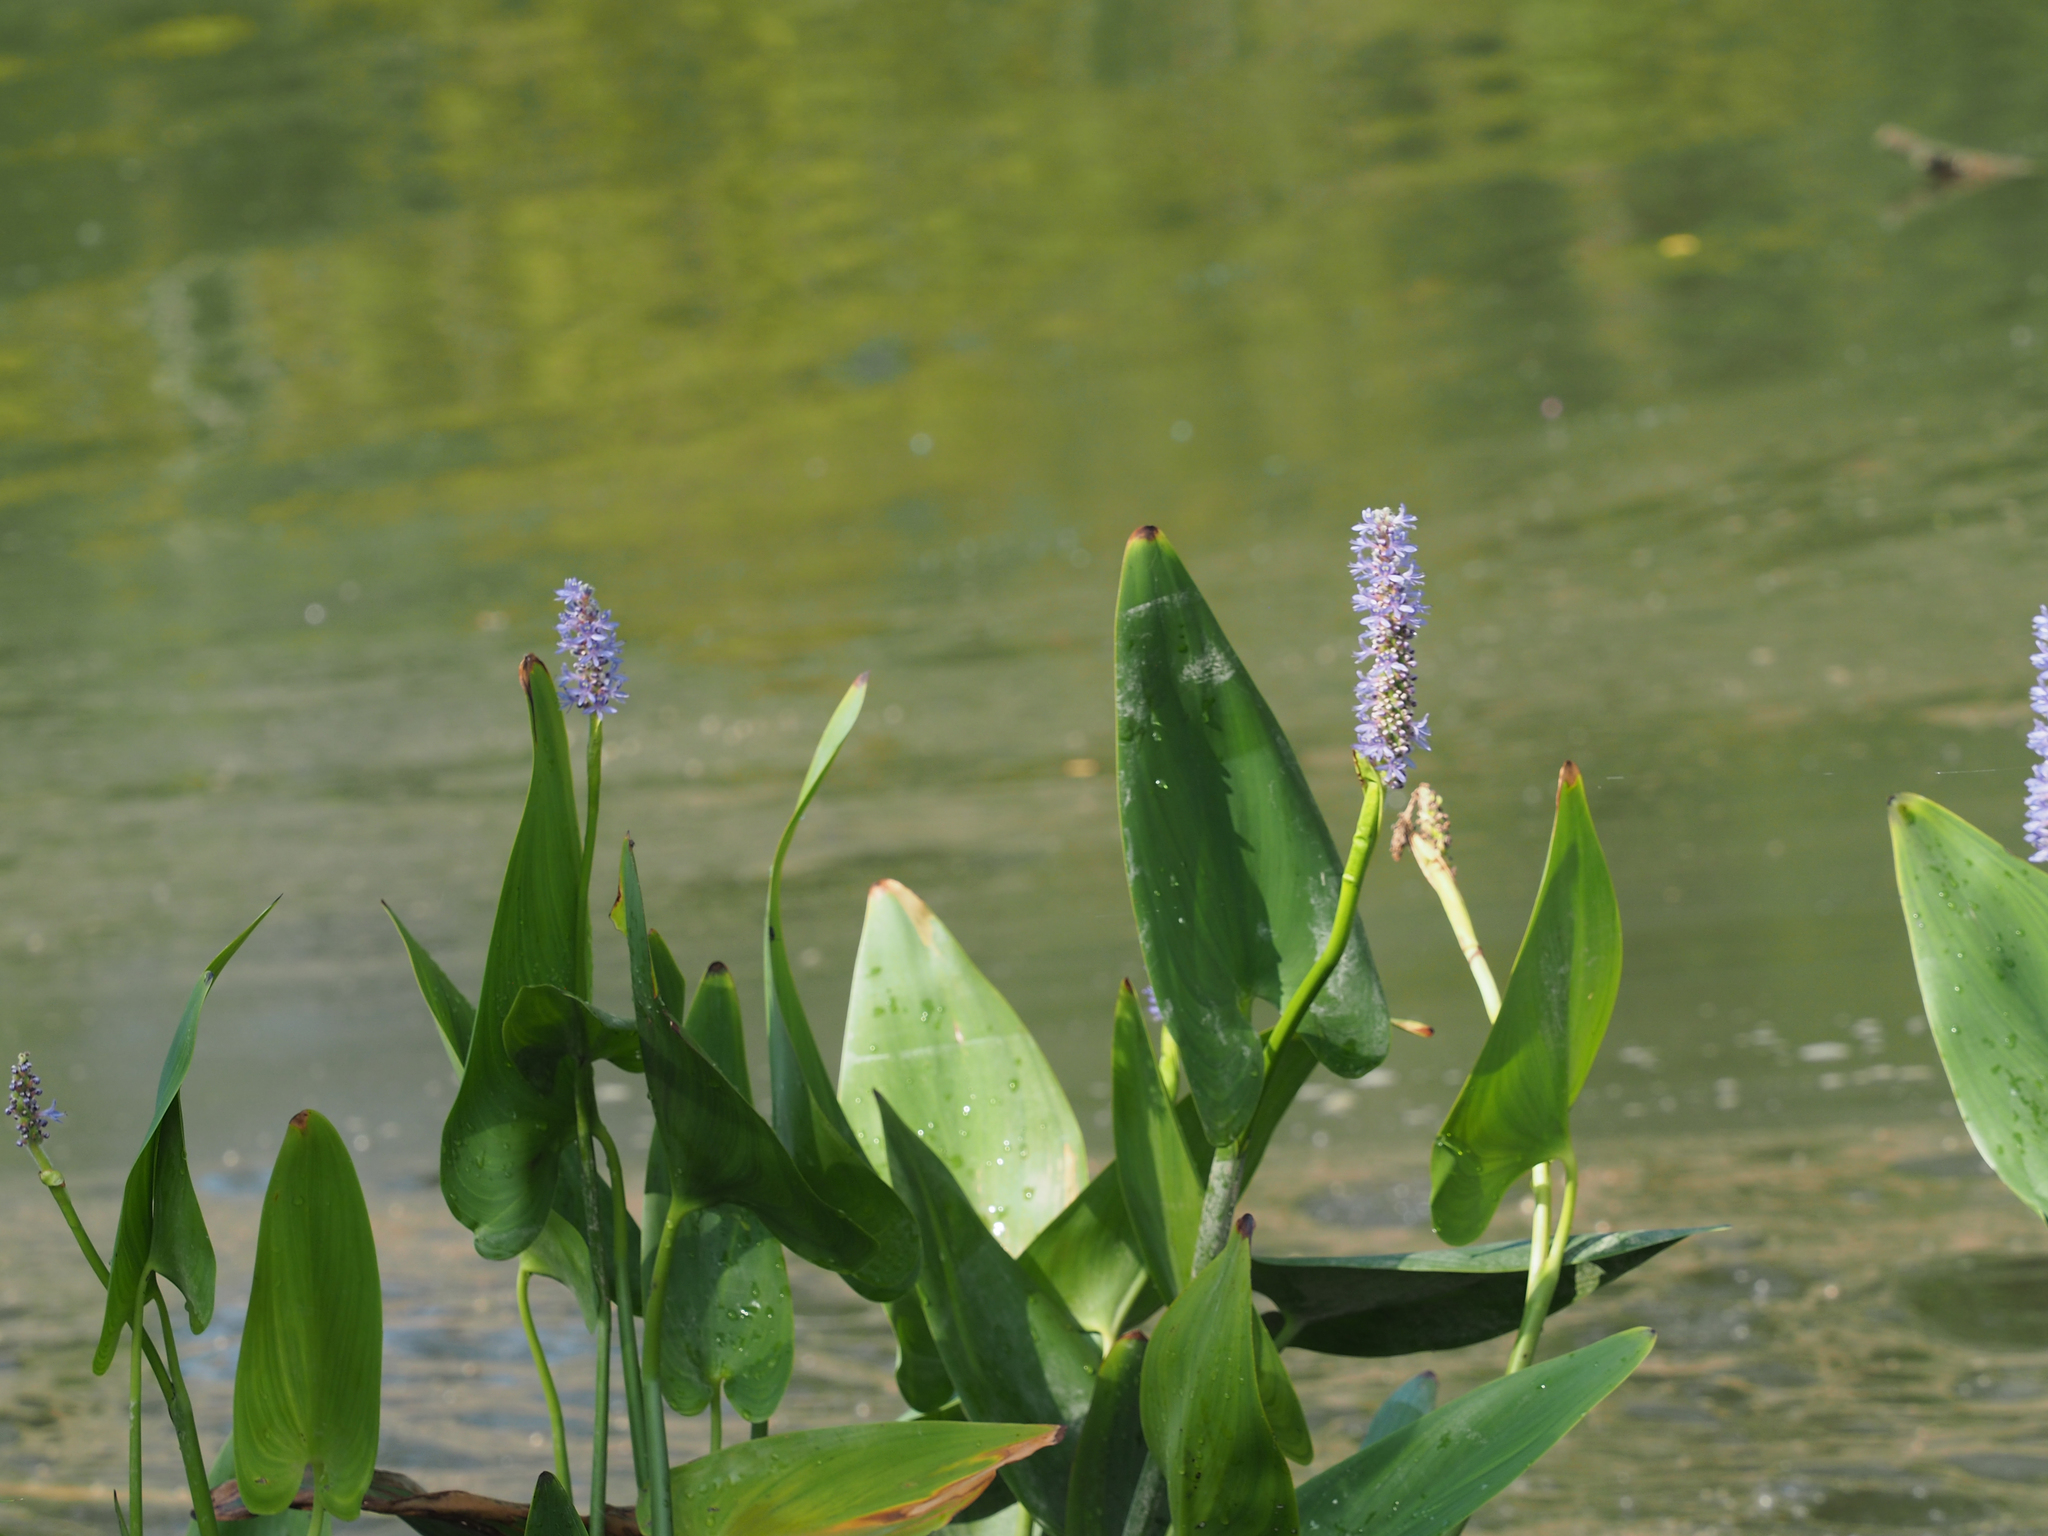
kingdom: Plantae
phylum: Tracheophyta
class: Liliopsida
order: Commelinales
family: Pontederiaceae
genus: Pontederia
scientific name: Pontederia cordata
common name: Pickerelweed
